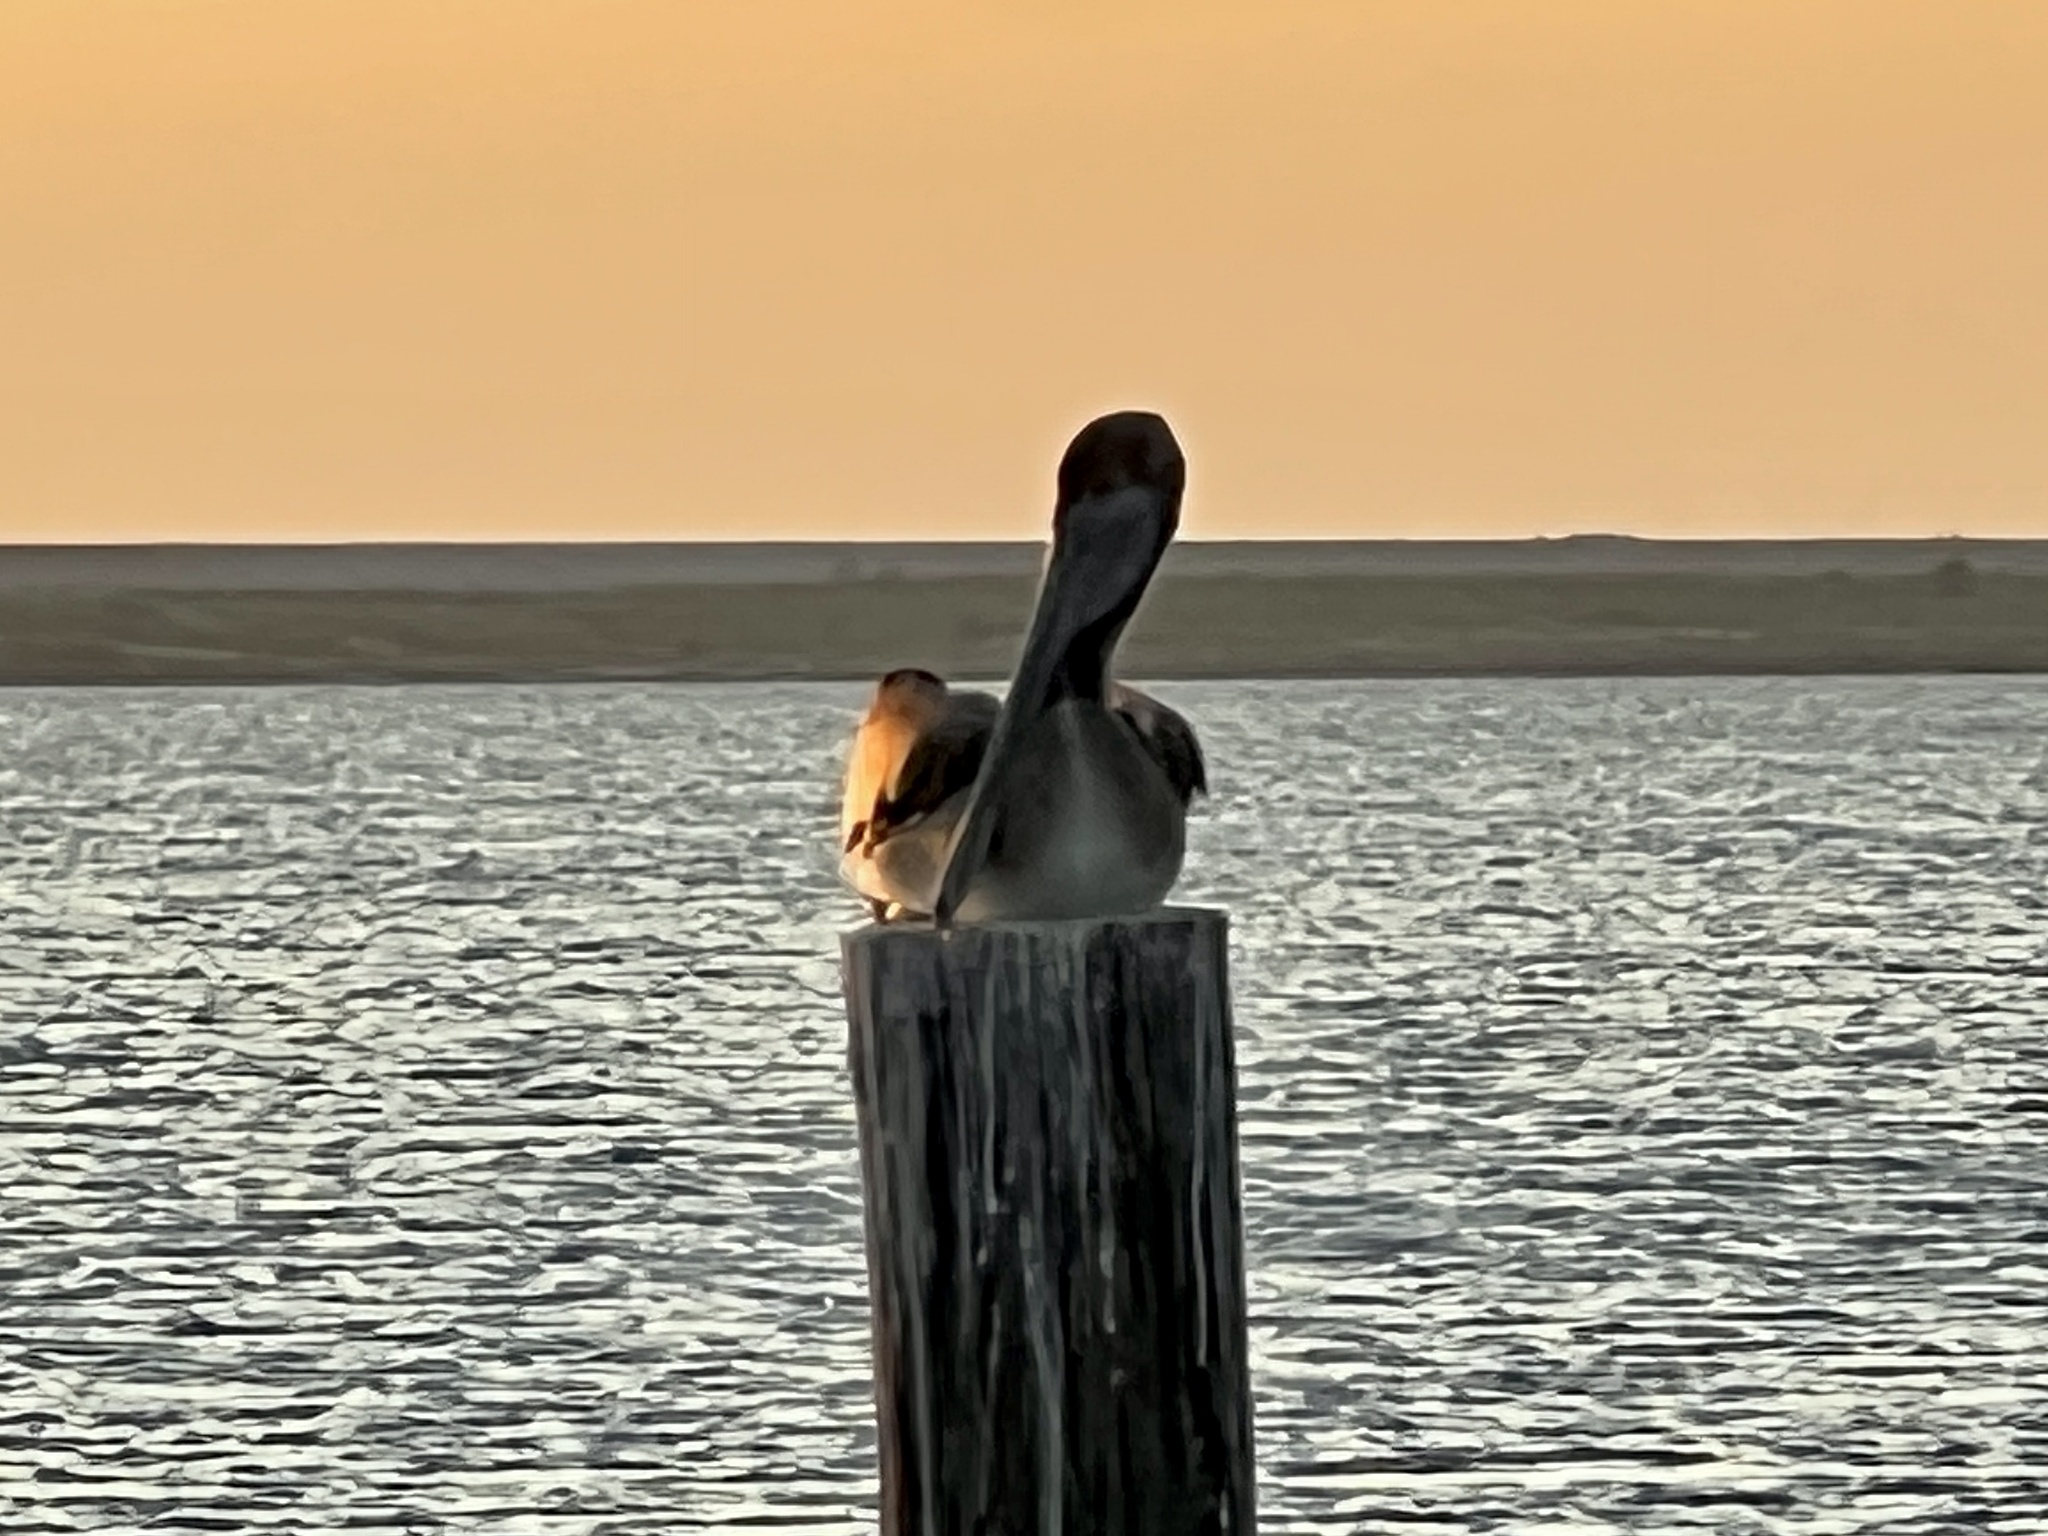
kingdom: Animalia
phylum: Chordata
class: Aves
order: Pelecaniformes
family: Pelecanidae
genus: Pelecanus
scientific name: Pelecanus occidentalis
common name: Brown pelican
